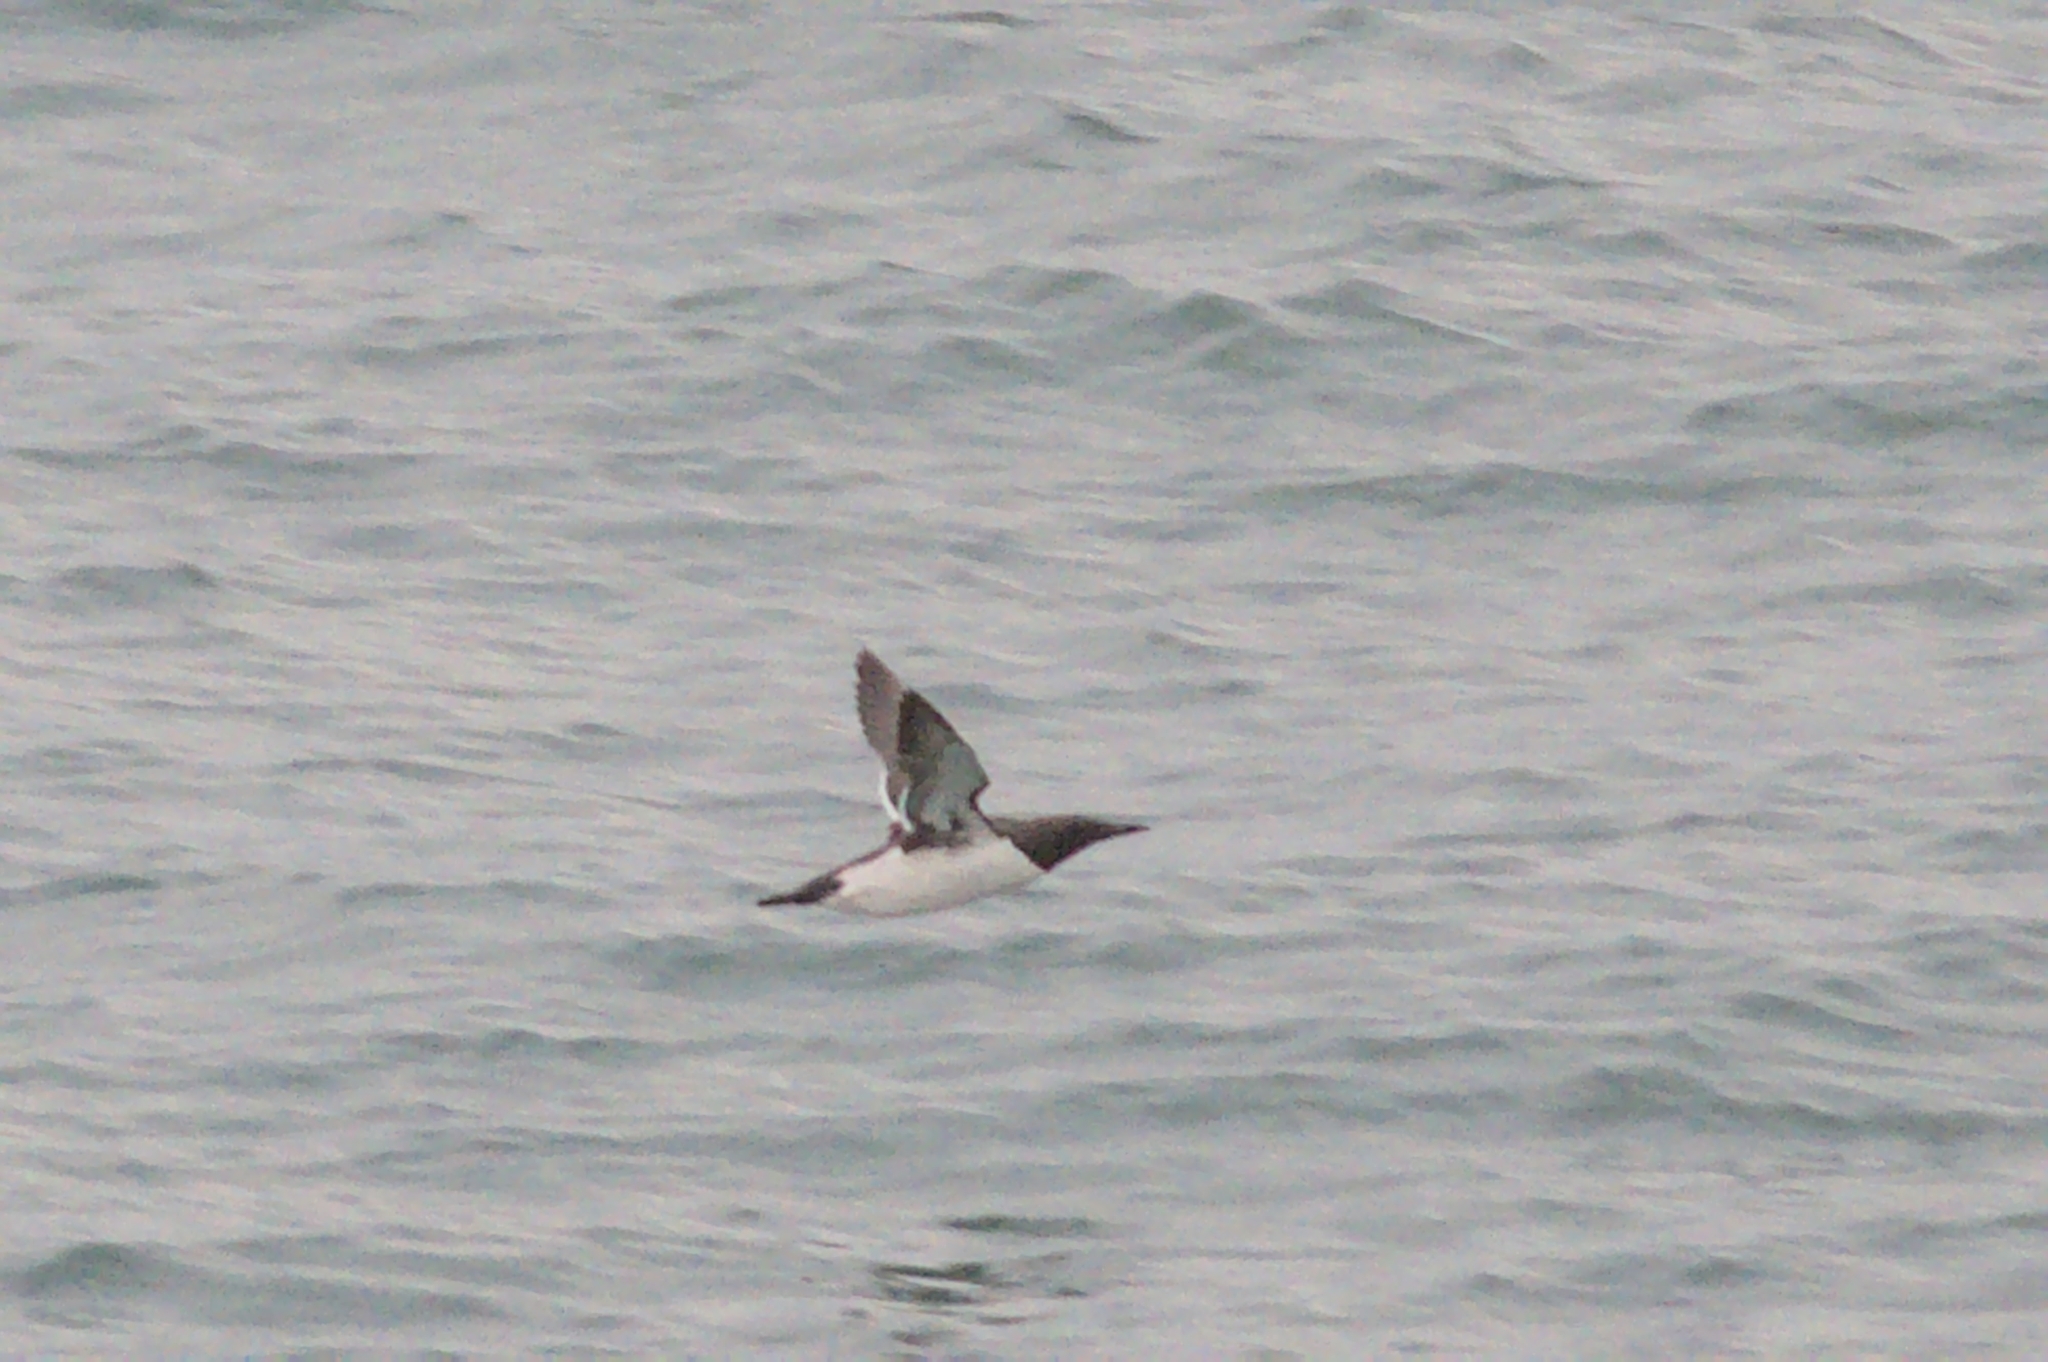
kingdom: Animalia
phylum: Chordata
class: Aves
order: Charadriiformes
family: Alcidae
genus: Uria
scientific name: Uria aalge
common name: Common murre
